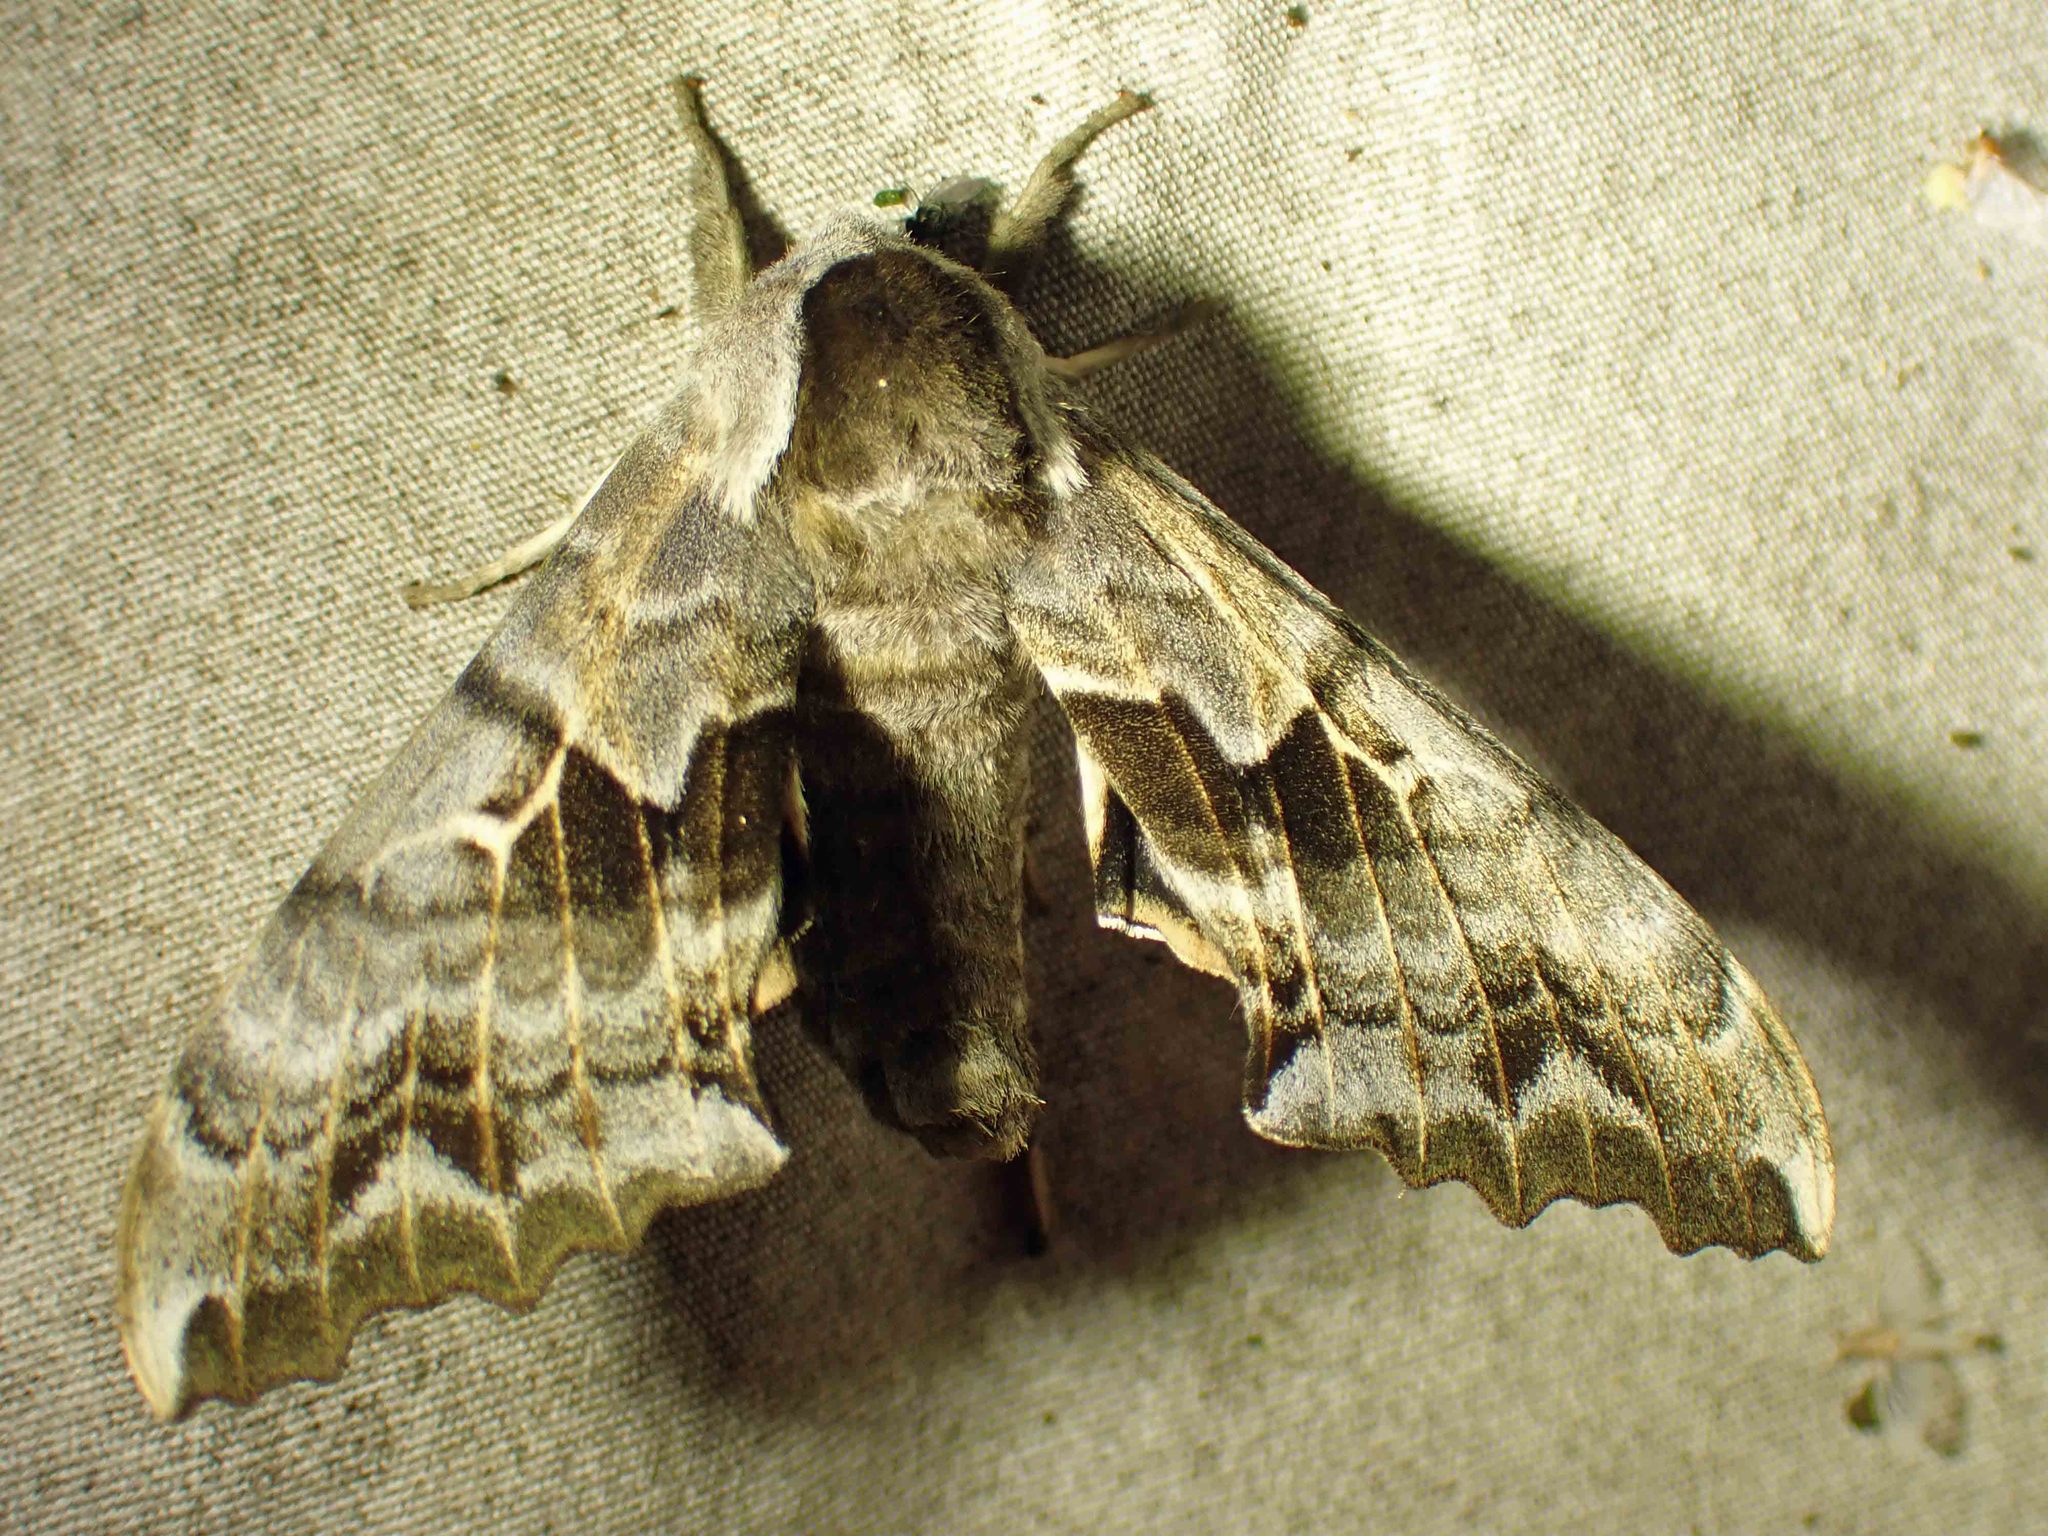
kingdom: Animalia
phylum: Arthropoda
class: Insecta
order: Lepidoptera
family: Sphingidae
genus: Smerinthus
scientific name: Smerinthus cerisyi
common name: Cerisy's sphinx moth
